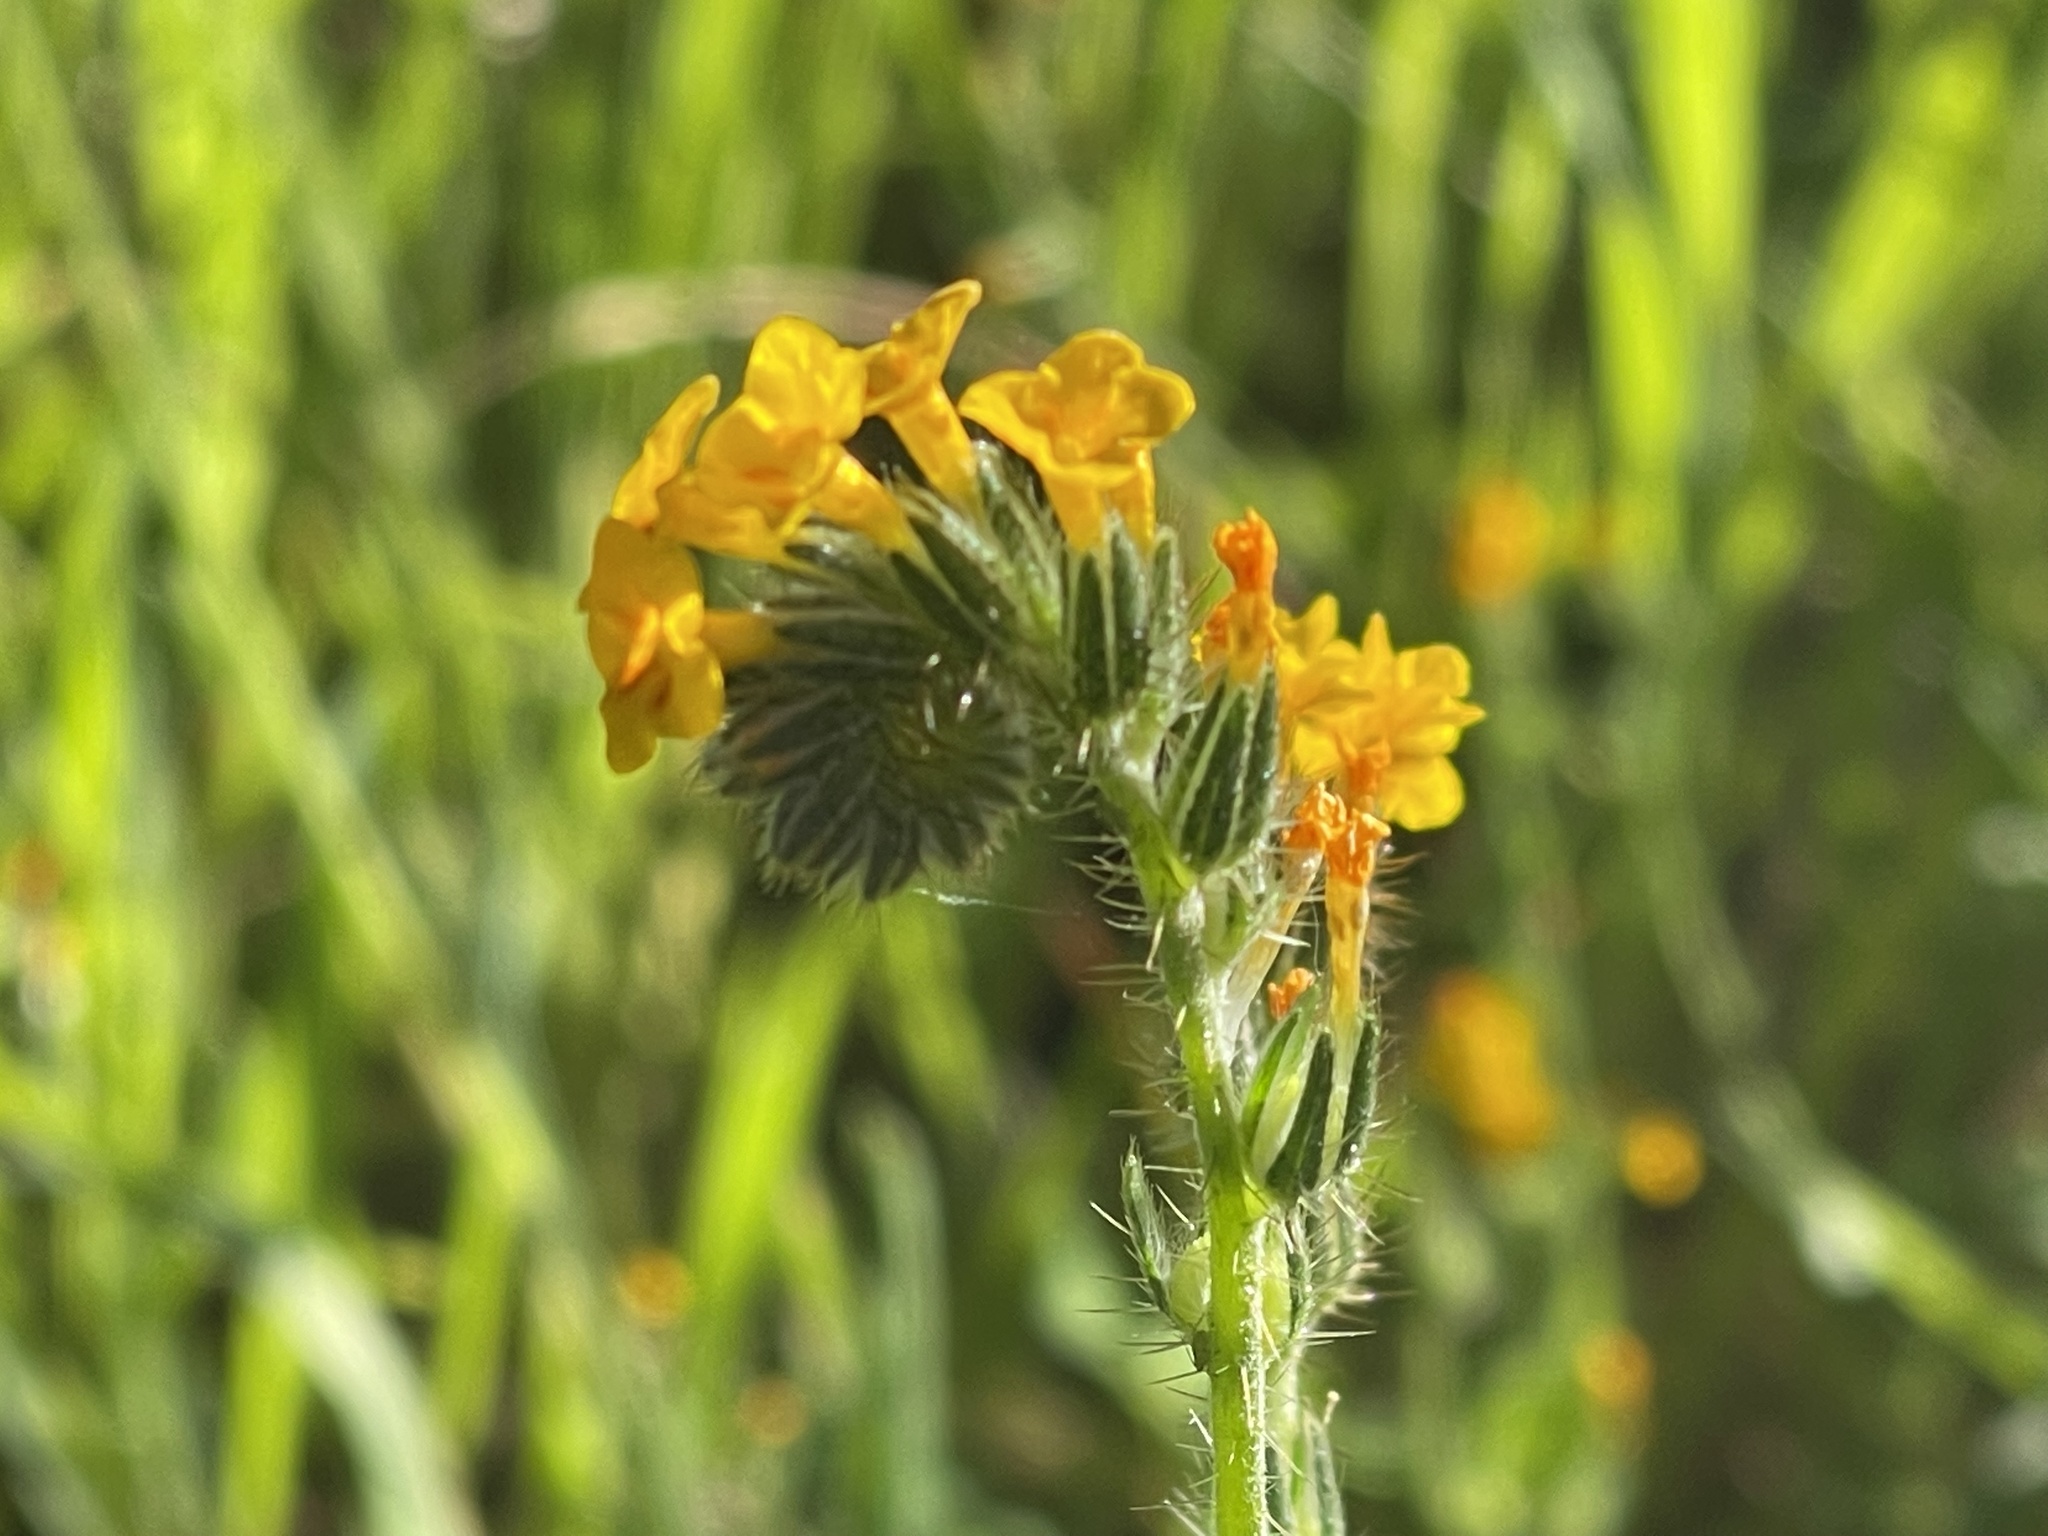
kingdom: Plantae
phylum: Tracheophyta
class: Magnoliopsida
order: Boraginales
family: Boraginaceae
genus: Amsinckia
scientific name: Amsinckia menziesii
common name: Menzies' fiddleneck
